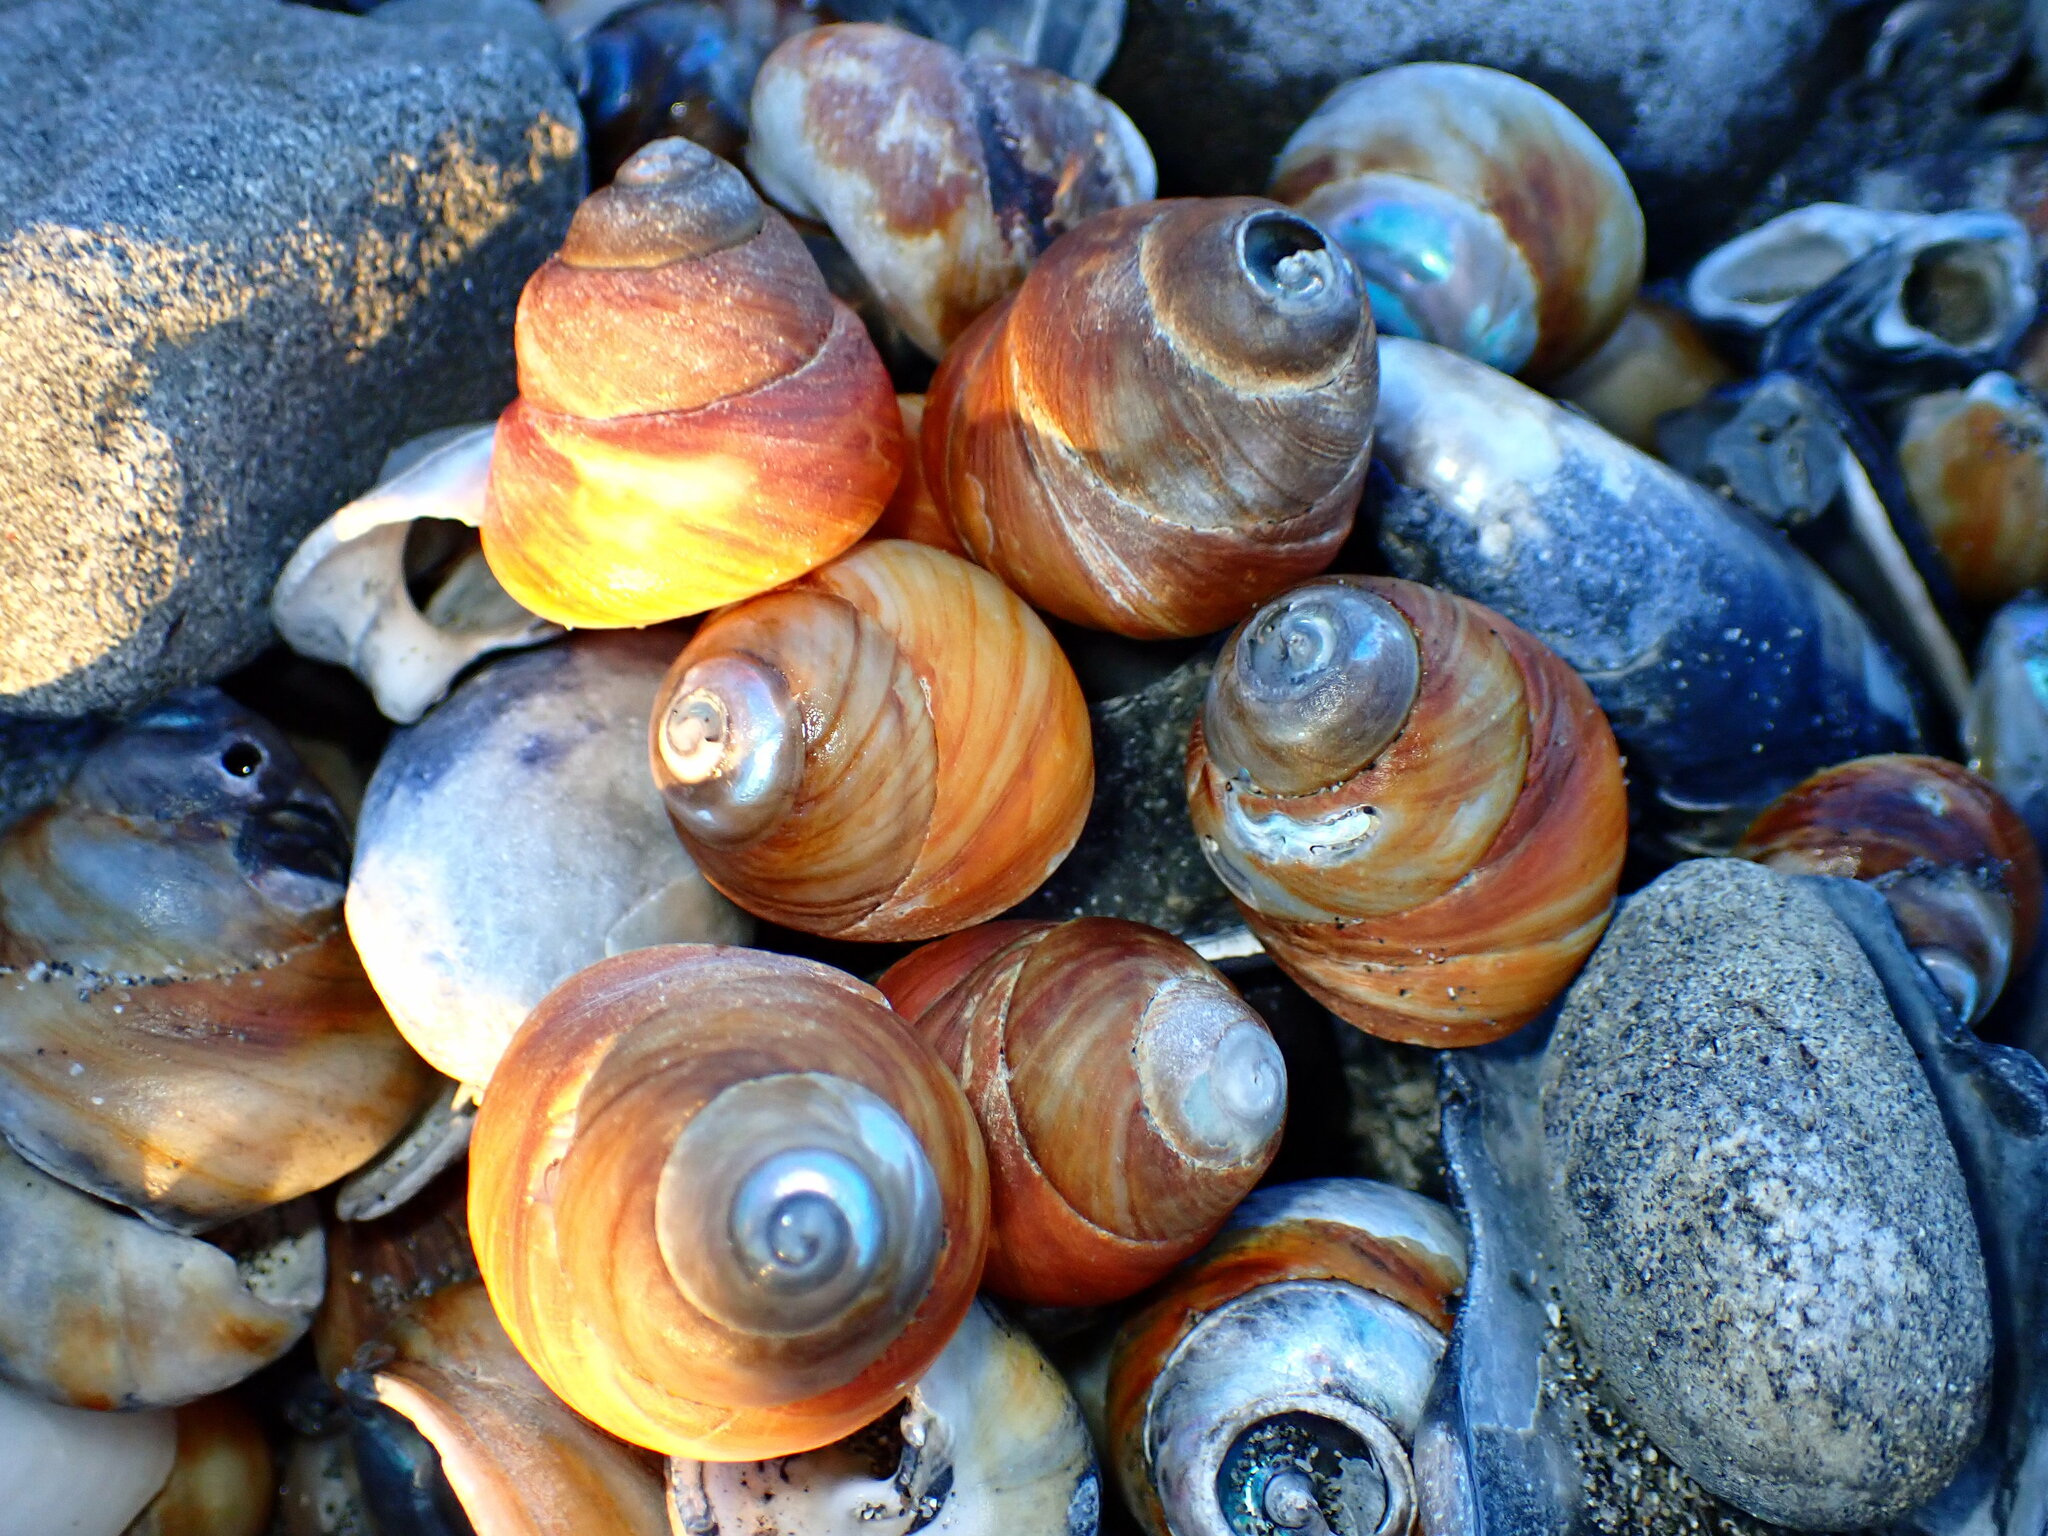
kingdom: Animalia
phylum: Mollusca
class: Gastropoda
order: Trochida
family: Tegulidae
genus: Tegula
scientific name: Tegula brunnea
